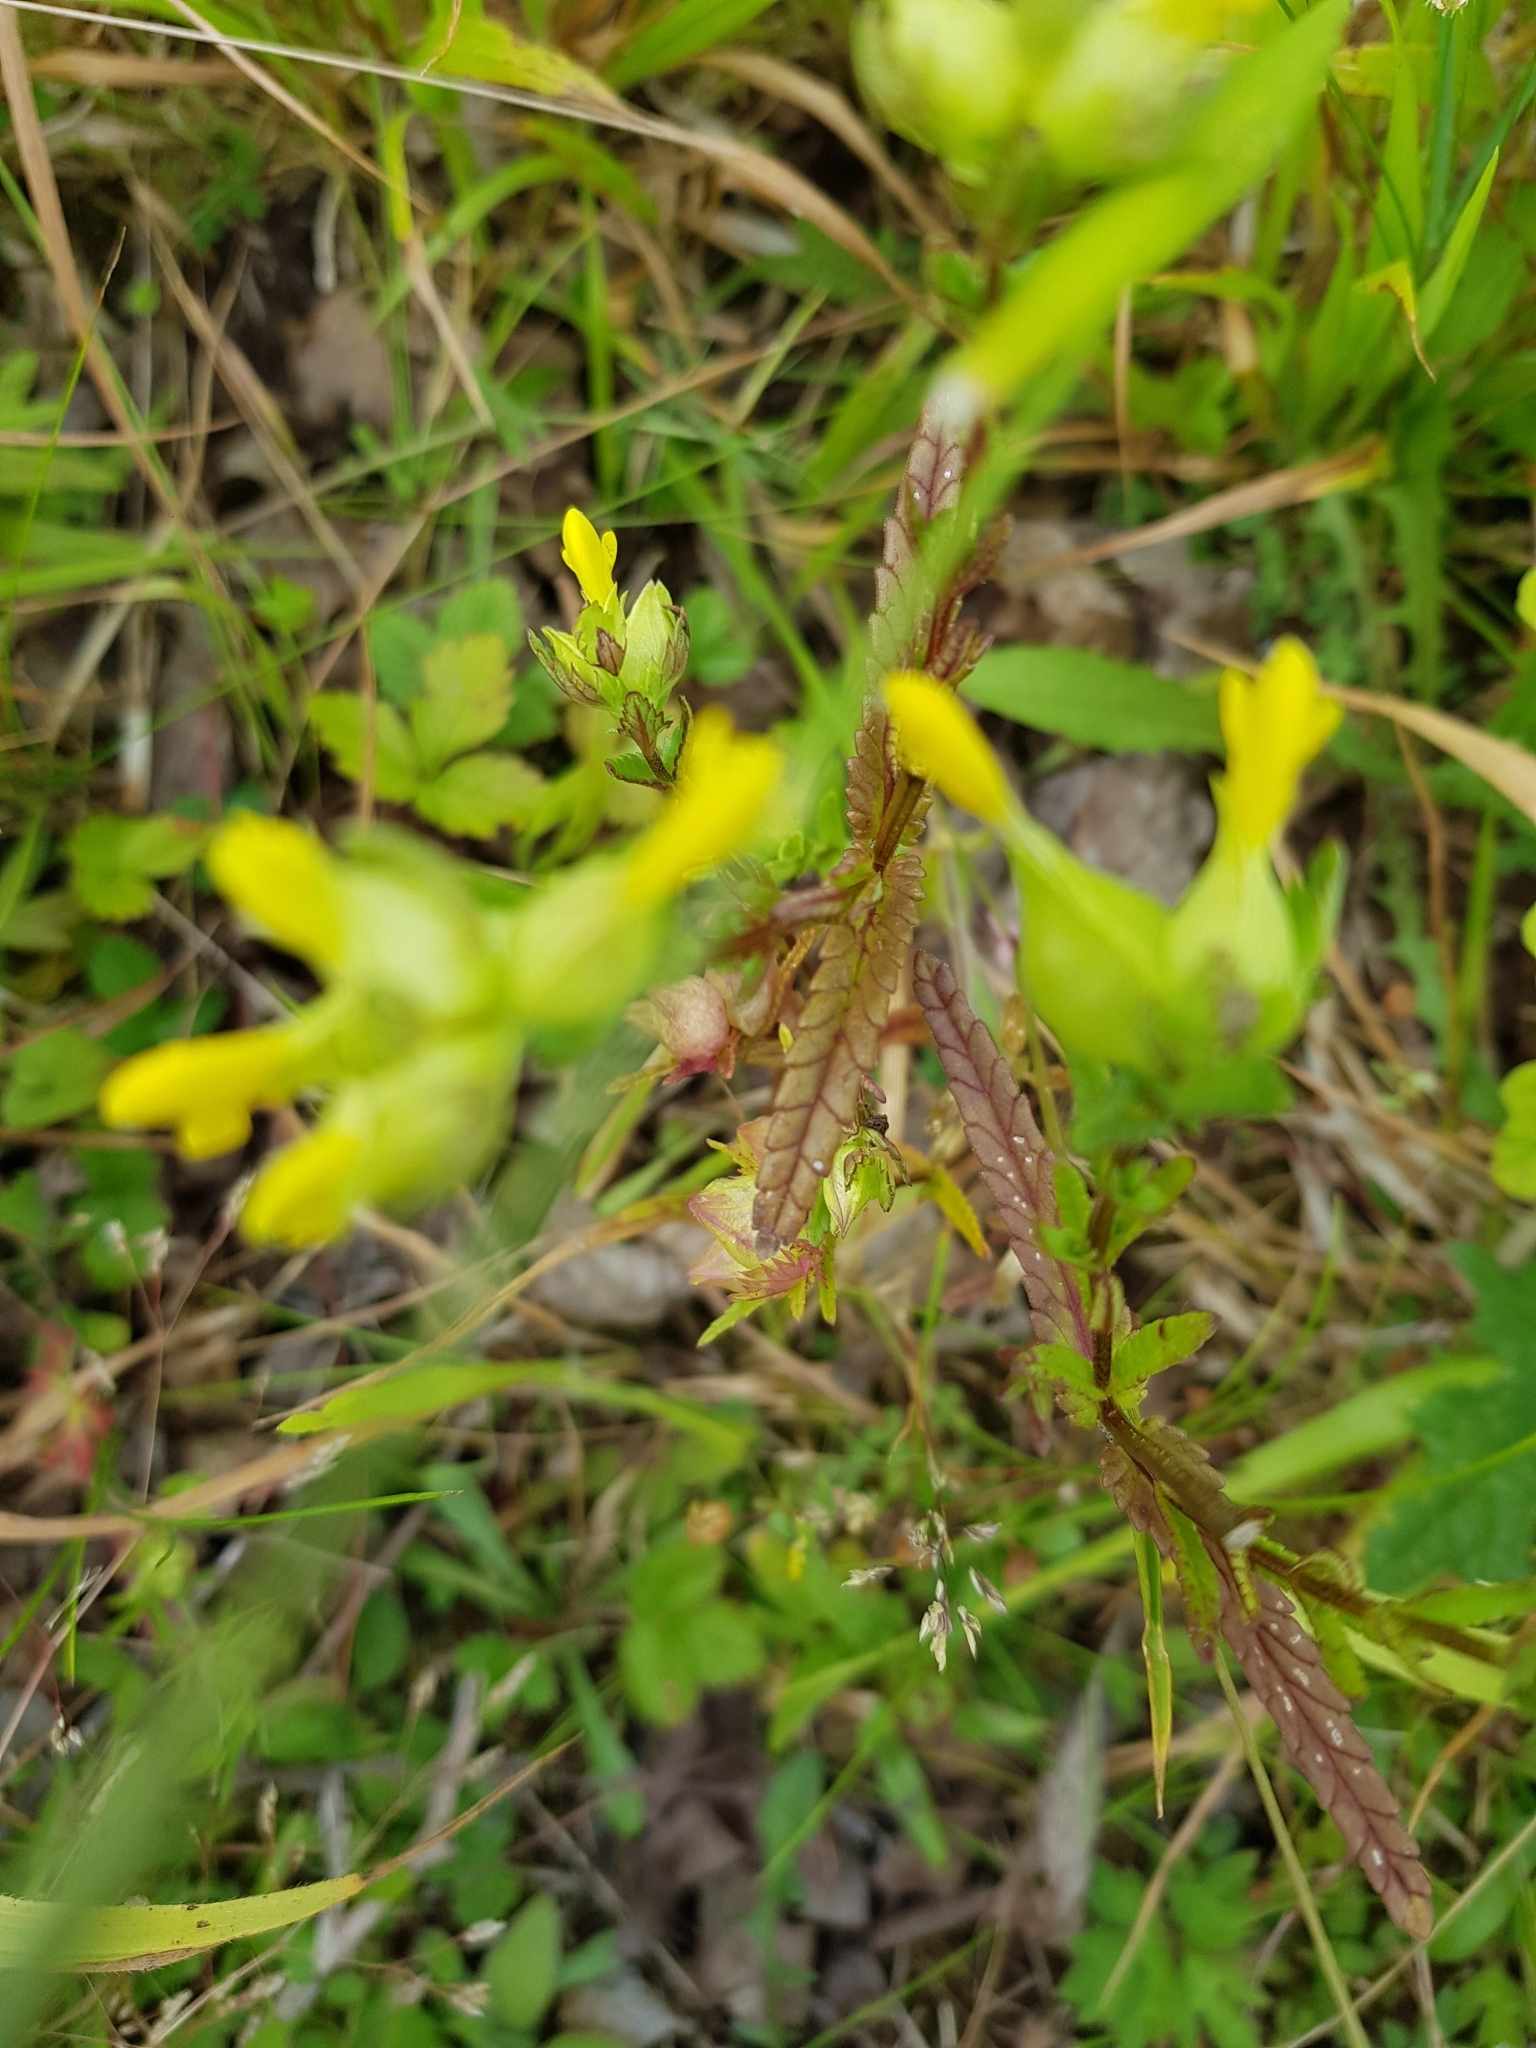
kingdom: Plantae
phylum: Tracheophyta
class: Magnoliopsida
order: Lamiales
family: Orobanchaceae
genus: Rhinanthus
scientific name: Rhinanthus minor
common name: Yellow-rattle
